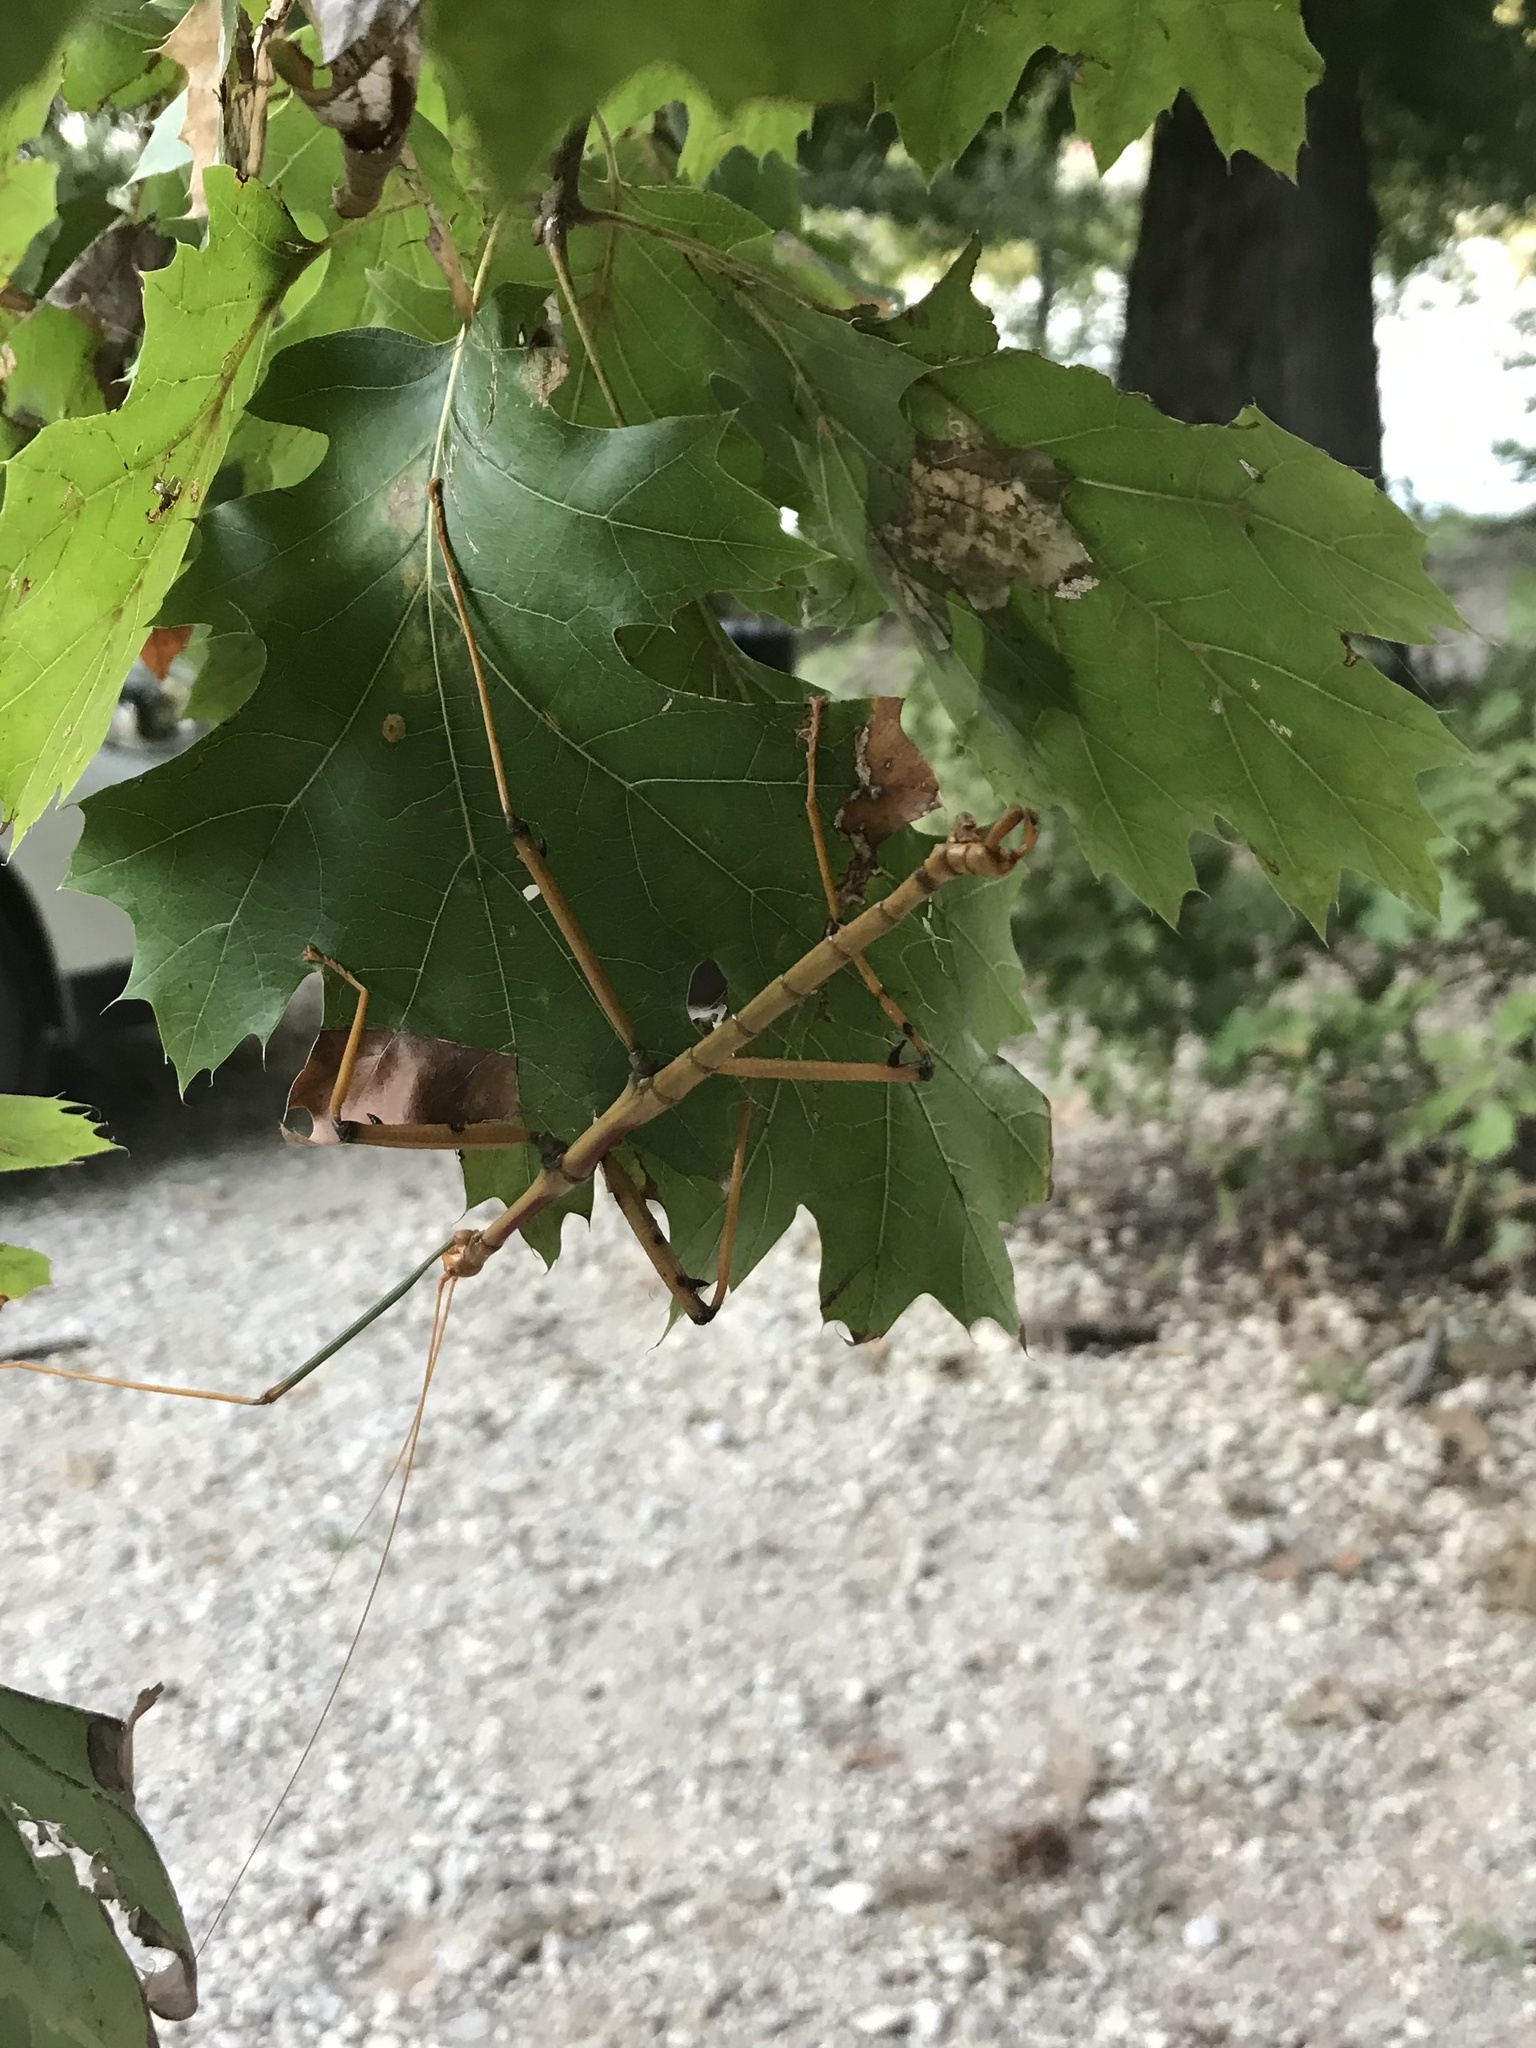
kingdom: Animalia
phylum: Arthropoda
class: Insecta
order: Phasmida
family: Diapheromeridae
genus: Megaphasma
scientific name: Megaphasma denticrus
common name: Giant walkingstick
